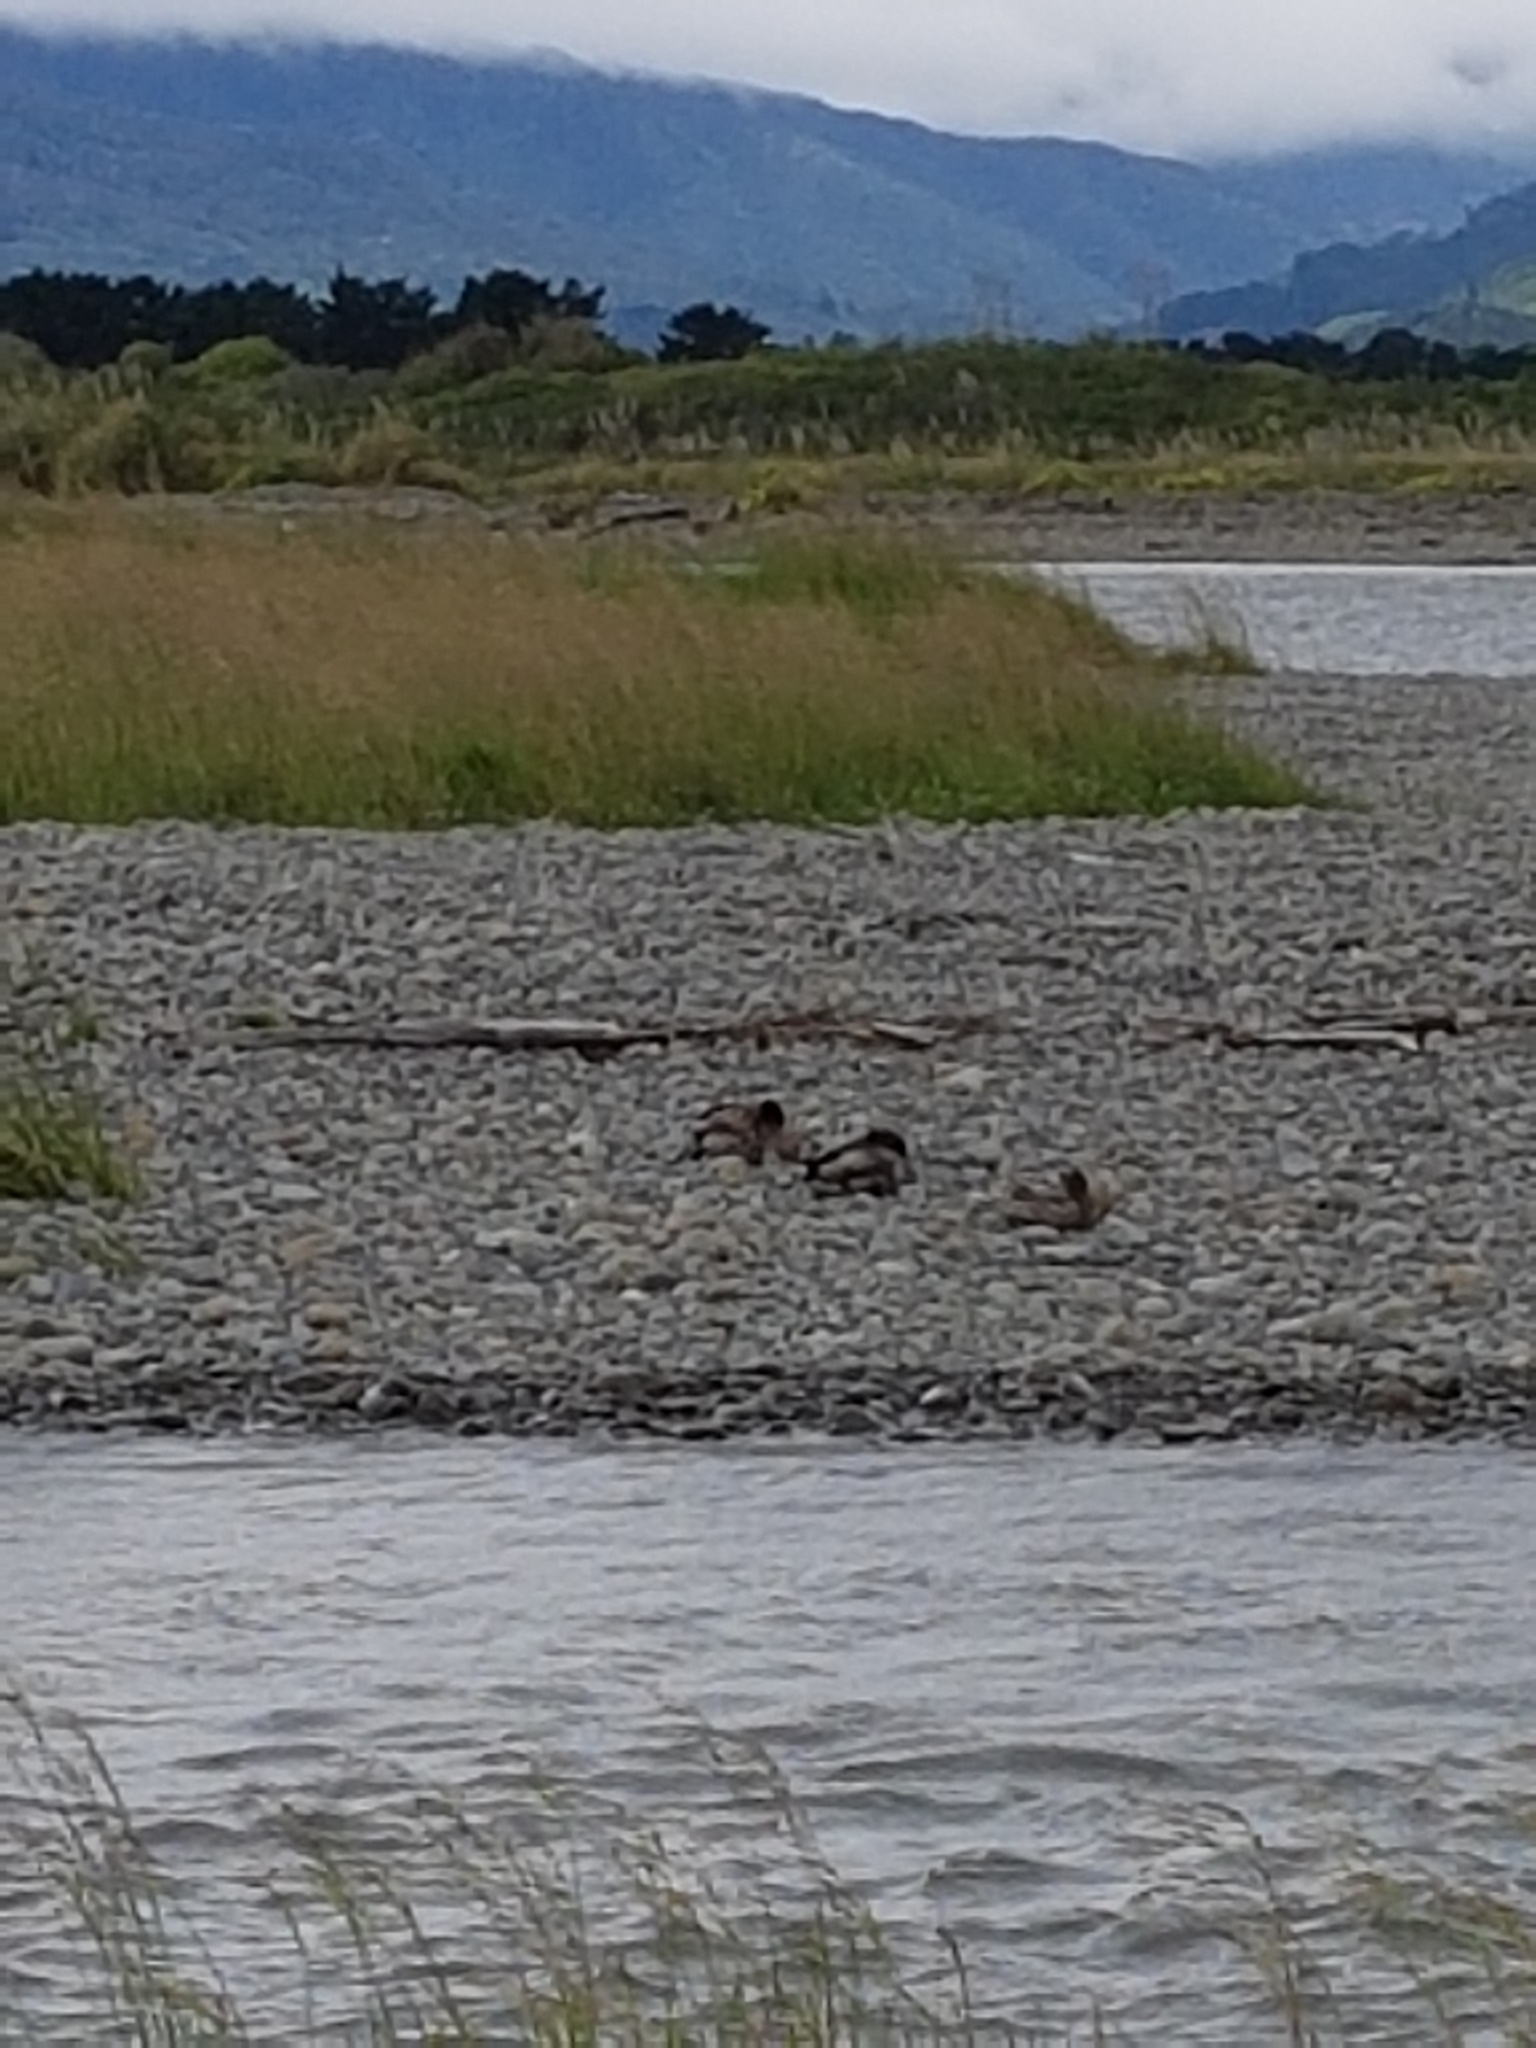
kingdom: Animalia
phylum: Chordata
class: Aves
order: Anseriformes
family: Anatidae
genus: Anas
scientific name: Anas platyrhynchos
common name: Mallard
